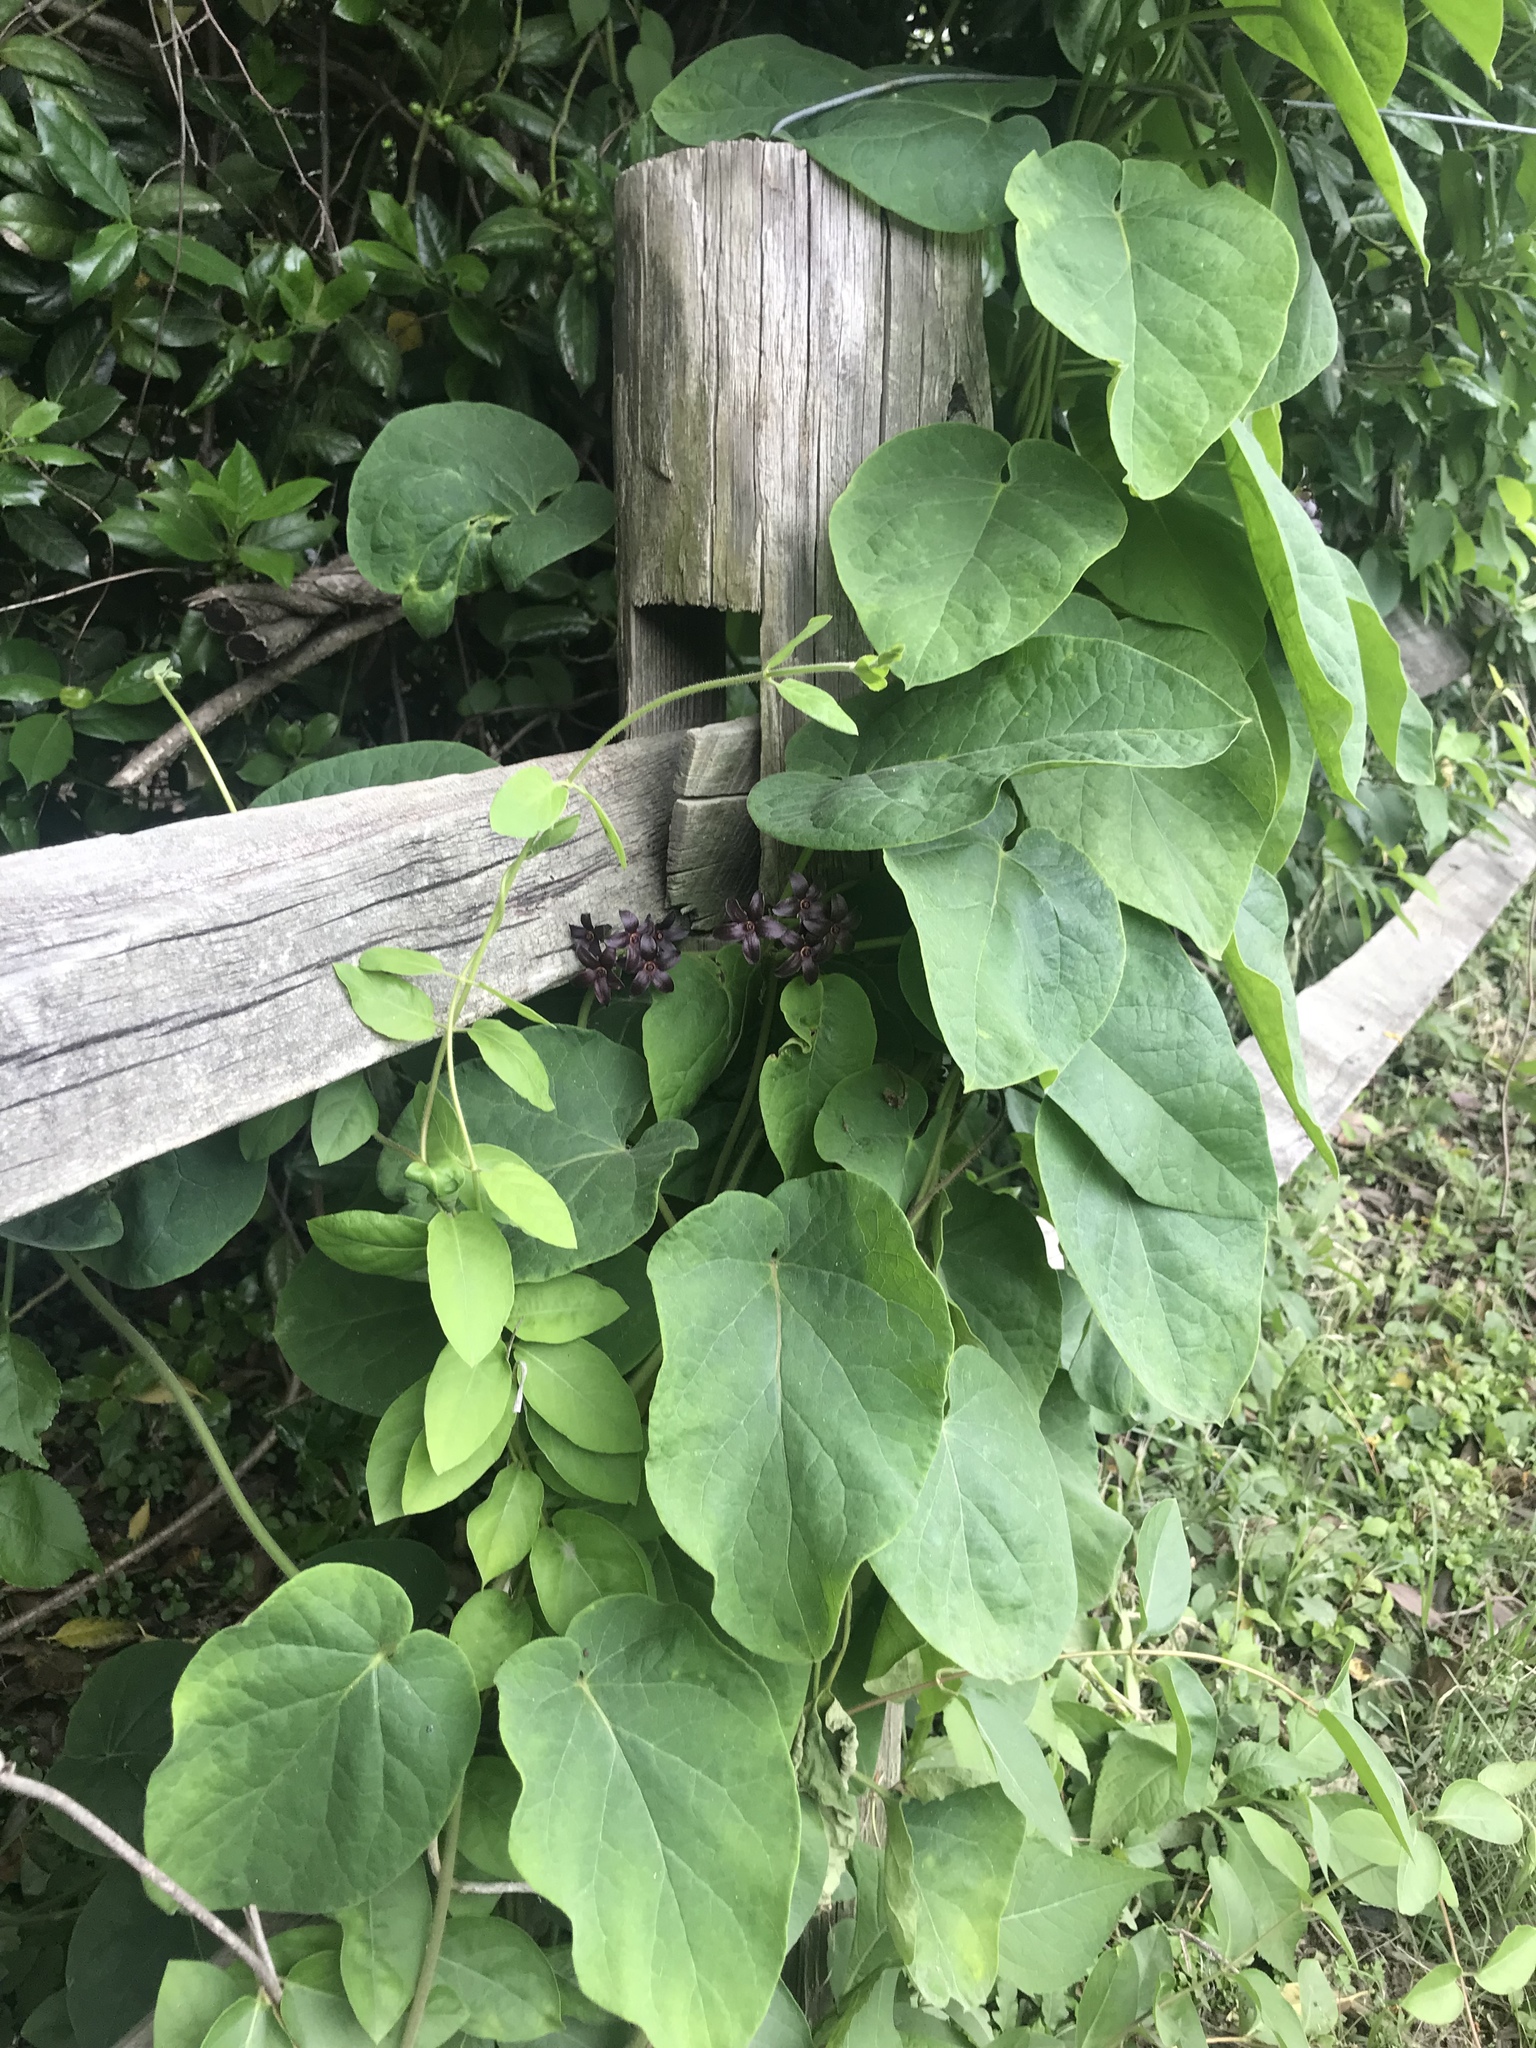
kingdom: Plantae
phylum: Tracheophyta
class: Magnoliopsida
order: Gentianales
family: Apocynaceae
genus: Matelea
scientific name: Matelea carolinensis
